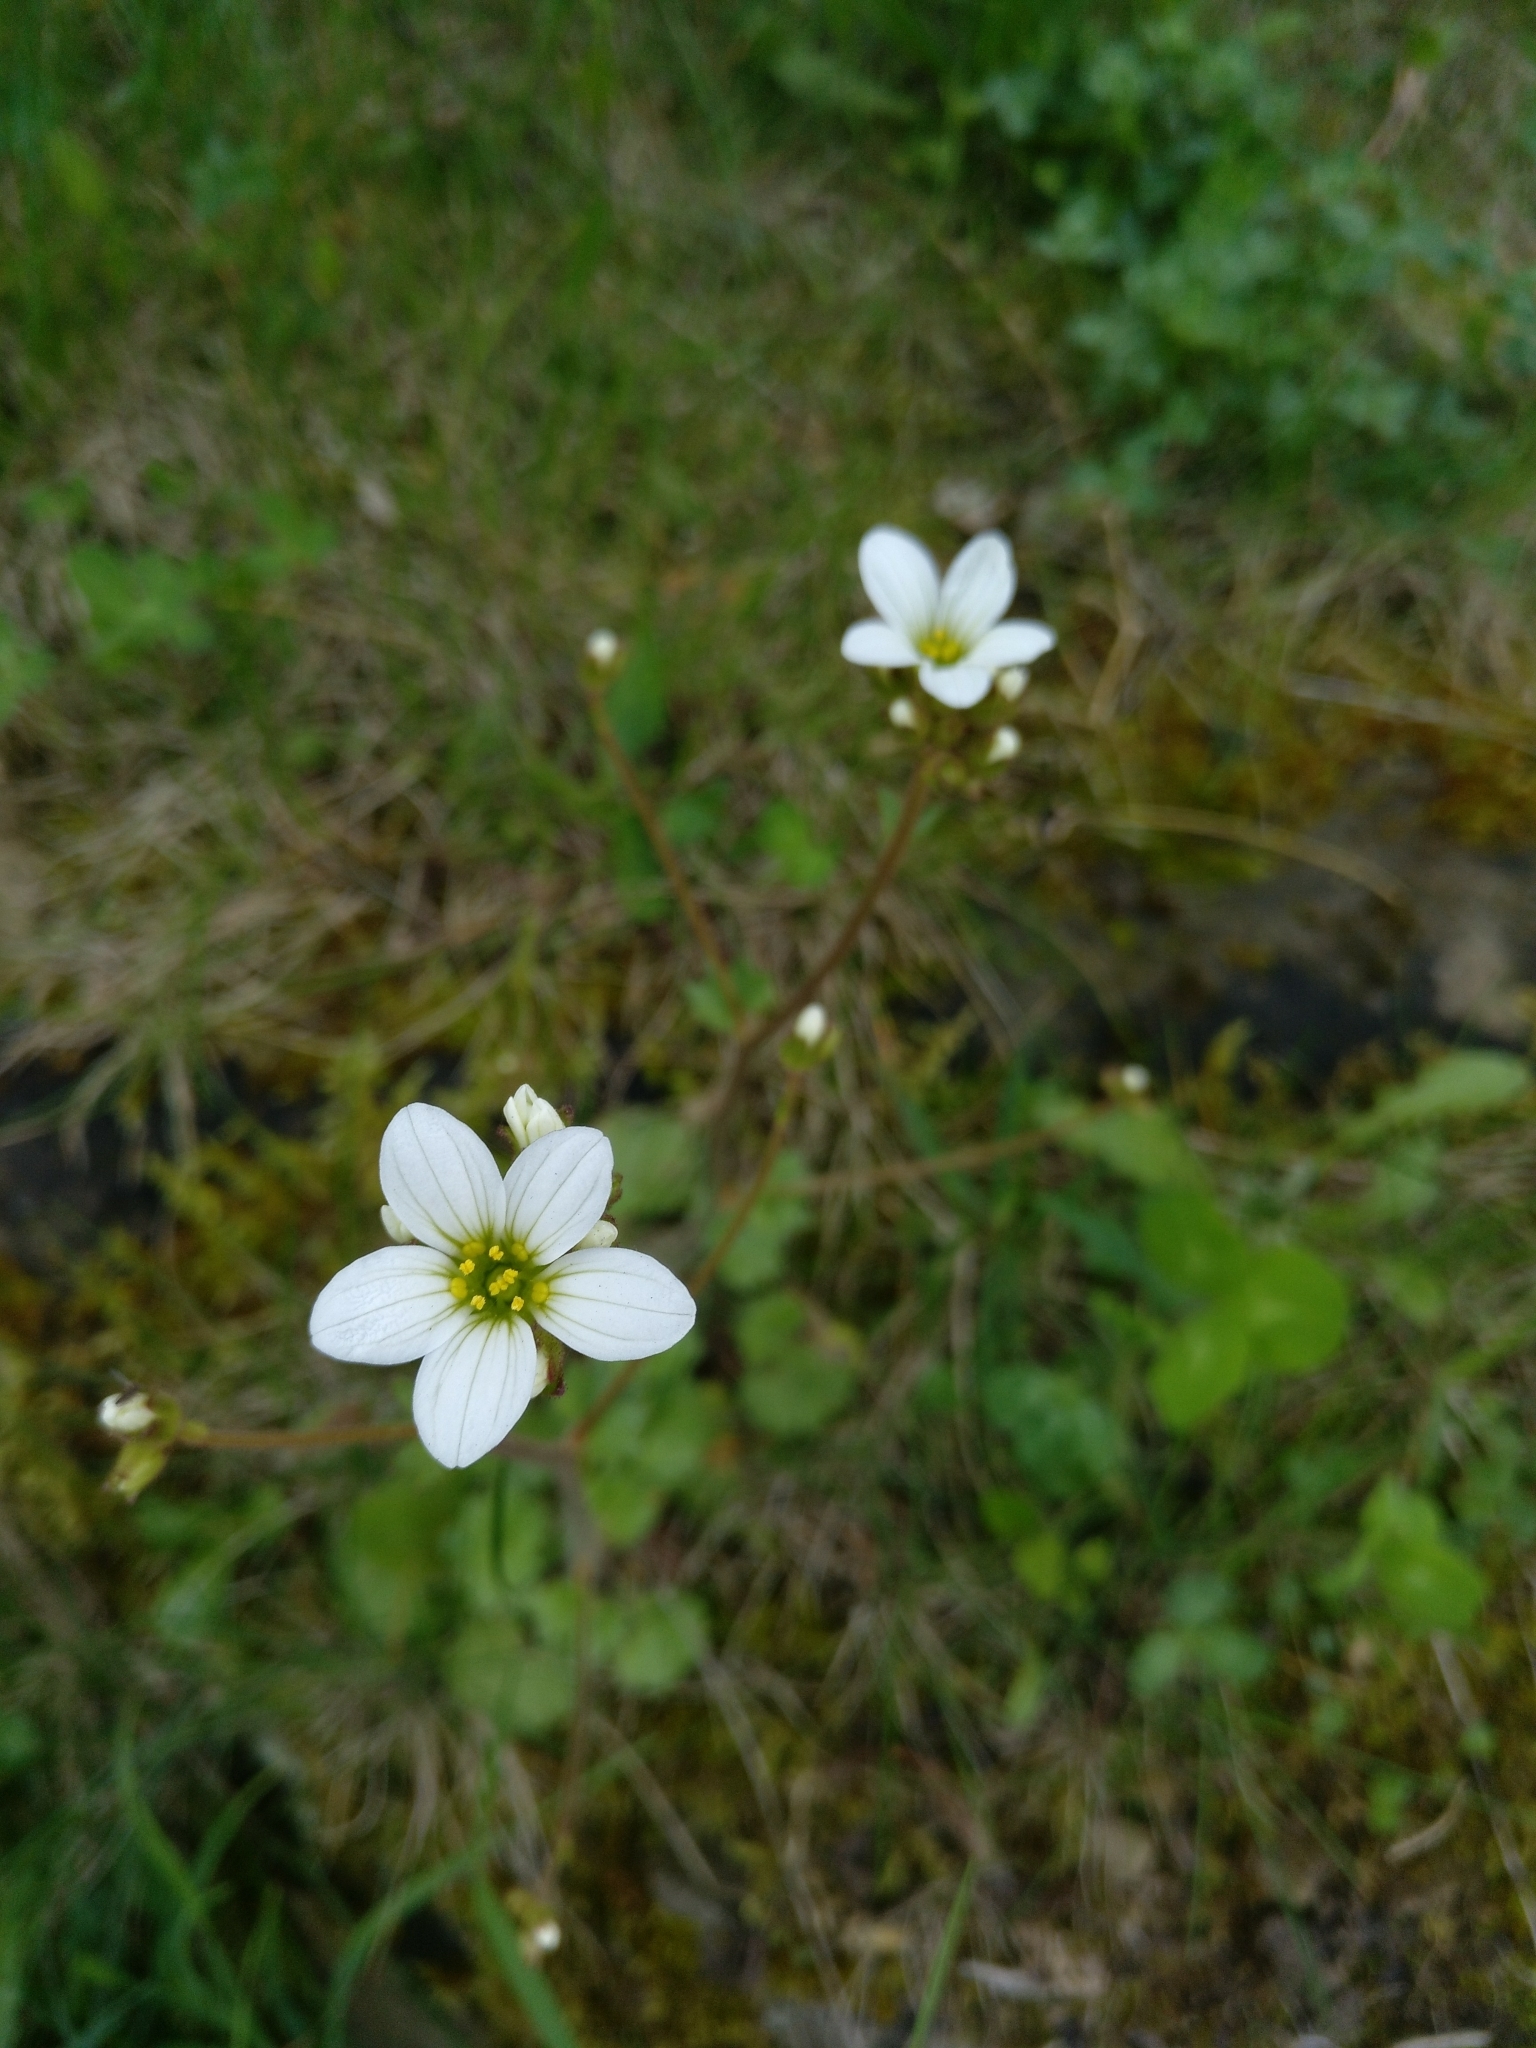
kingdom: Plantae
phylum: Tracheophyta
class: Magnoliopsida
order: Saxifragales
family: Saxifragaceae
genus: Saxifraga
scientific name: Saxifraga granulata
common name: Meadow saxifrage
